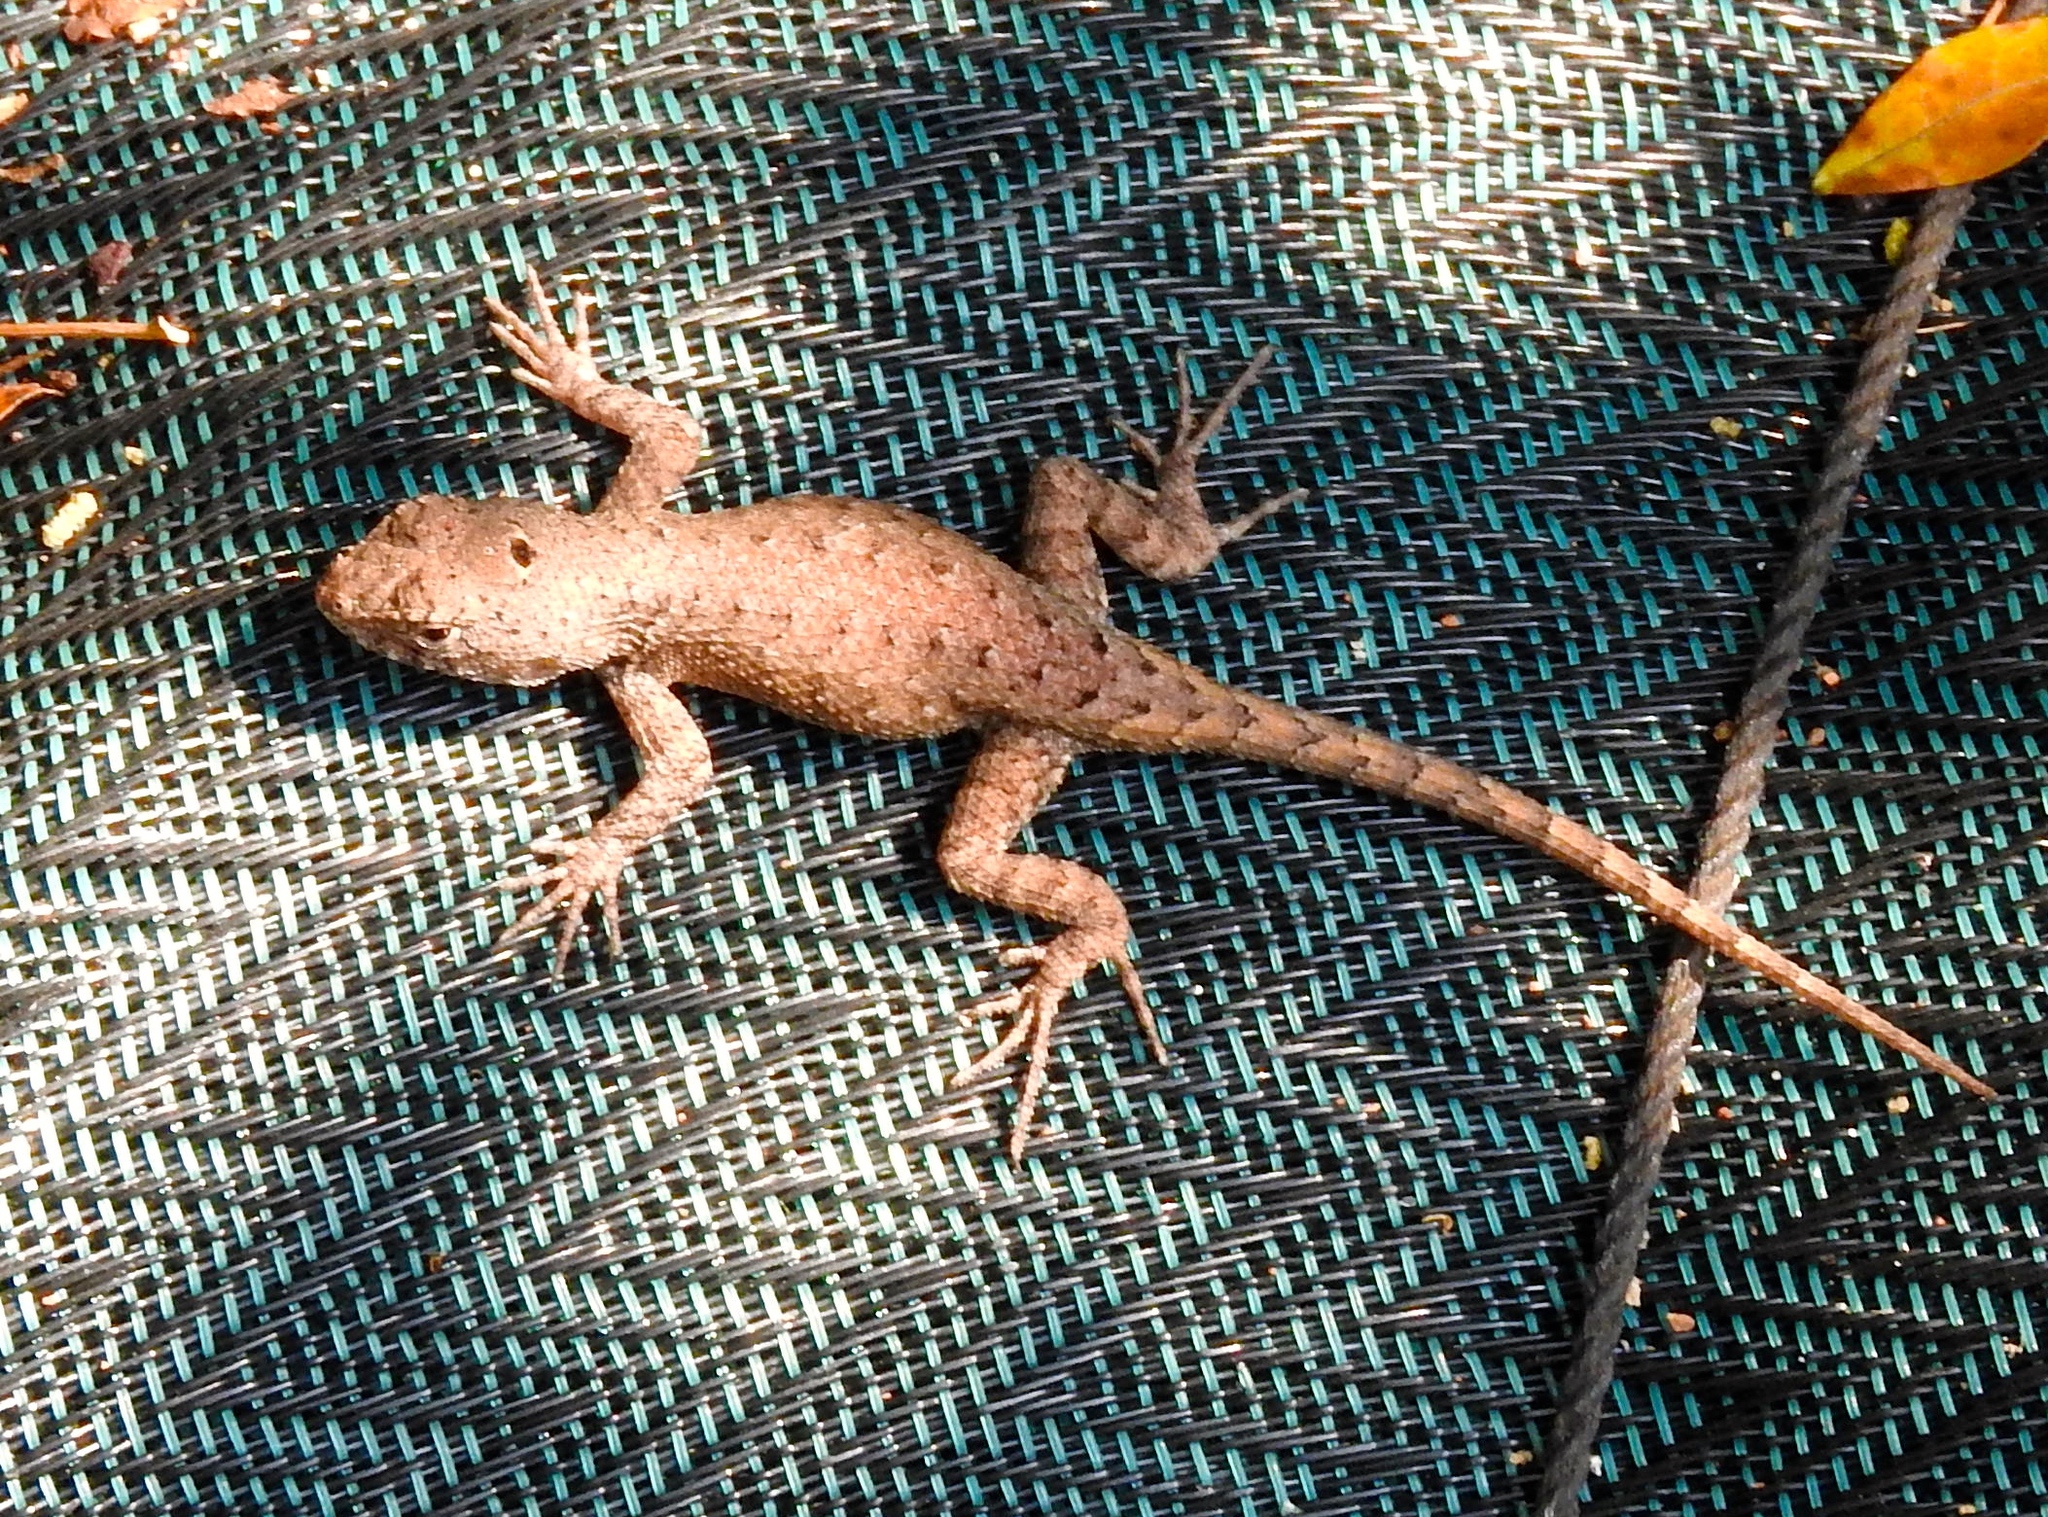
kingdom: Animalia
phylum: Chordata
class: Squamata
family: Phrynosomatidae
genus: Sceloporus
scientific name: Sceloporus nelsoni
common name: Nelson's spiny lizard
